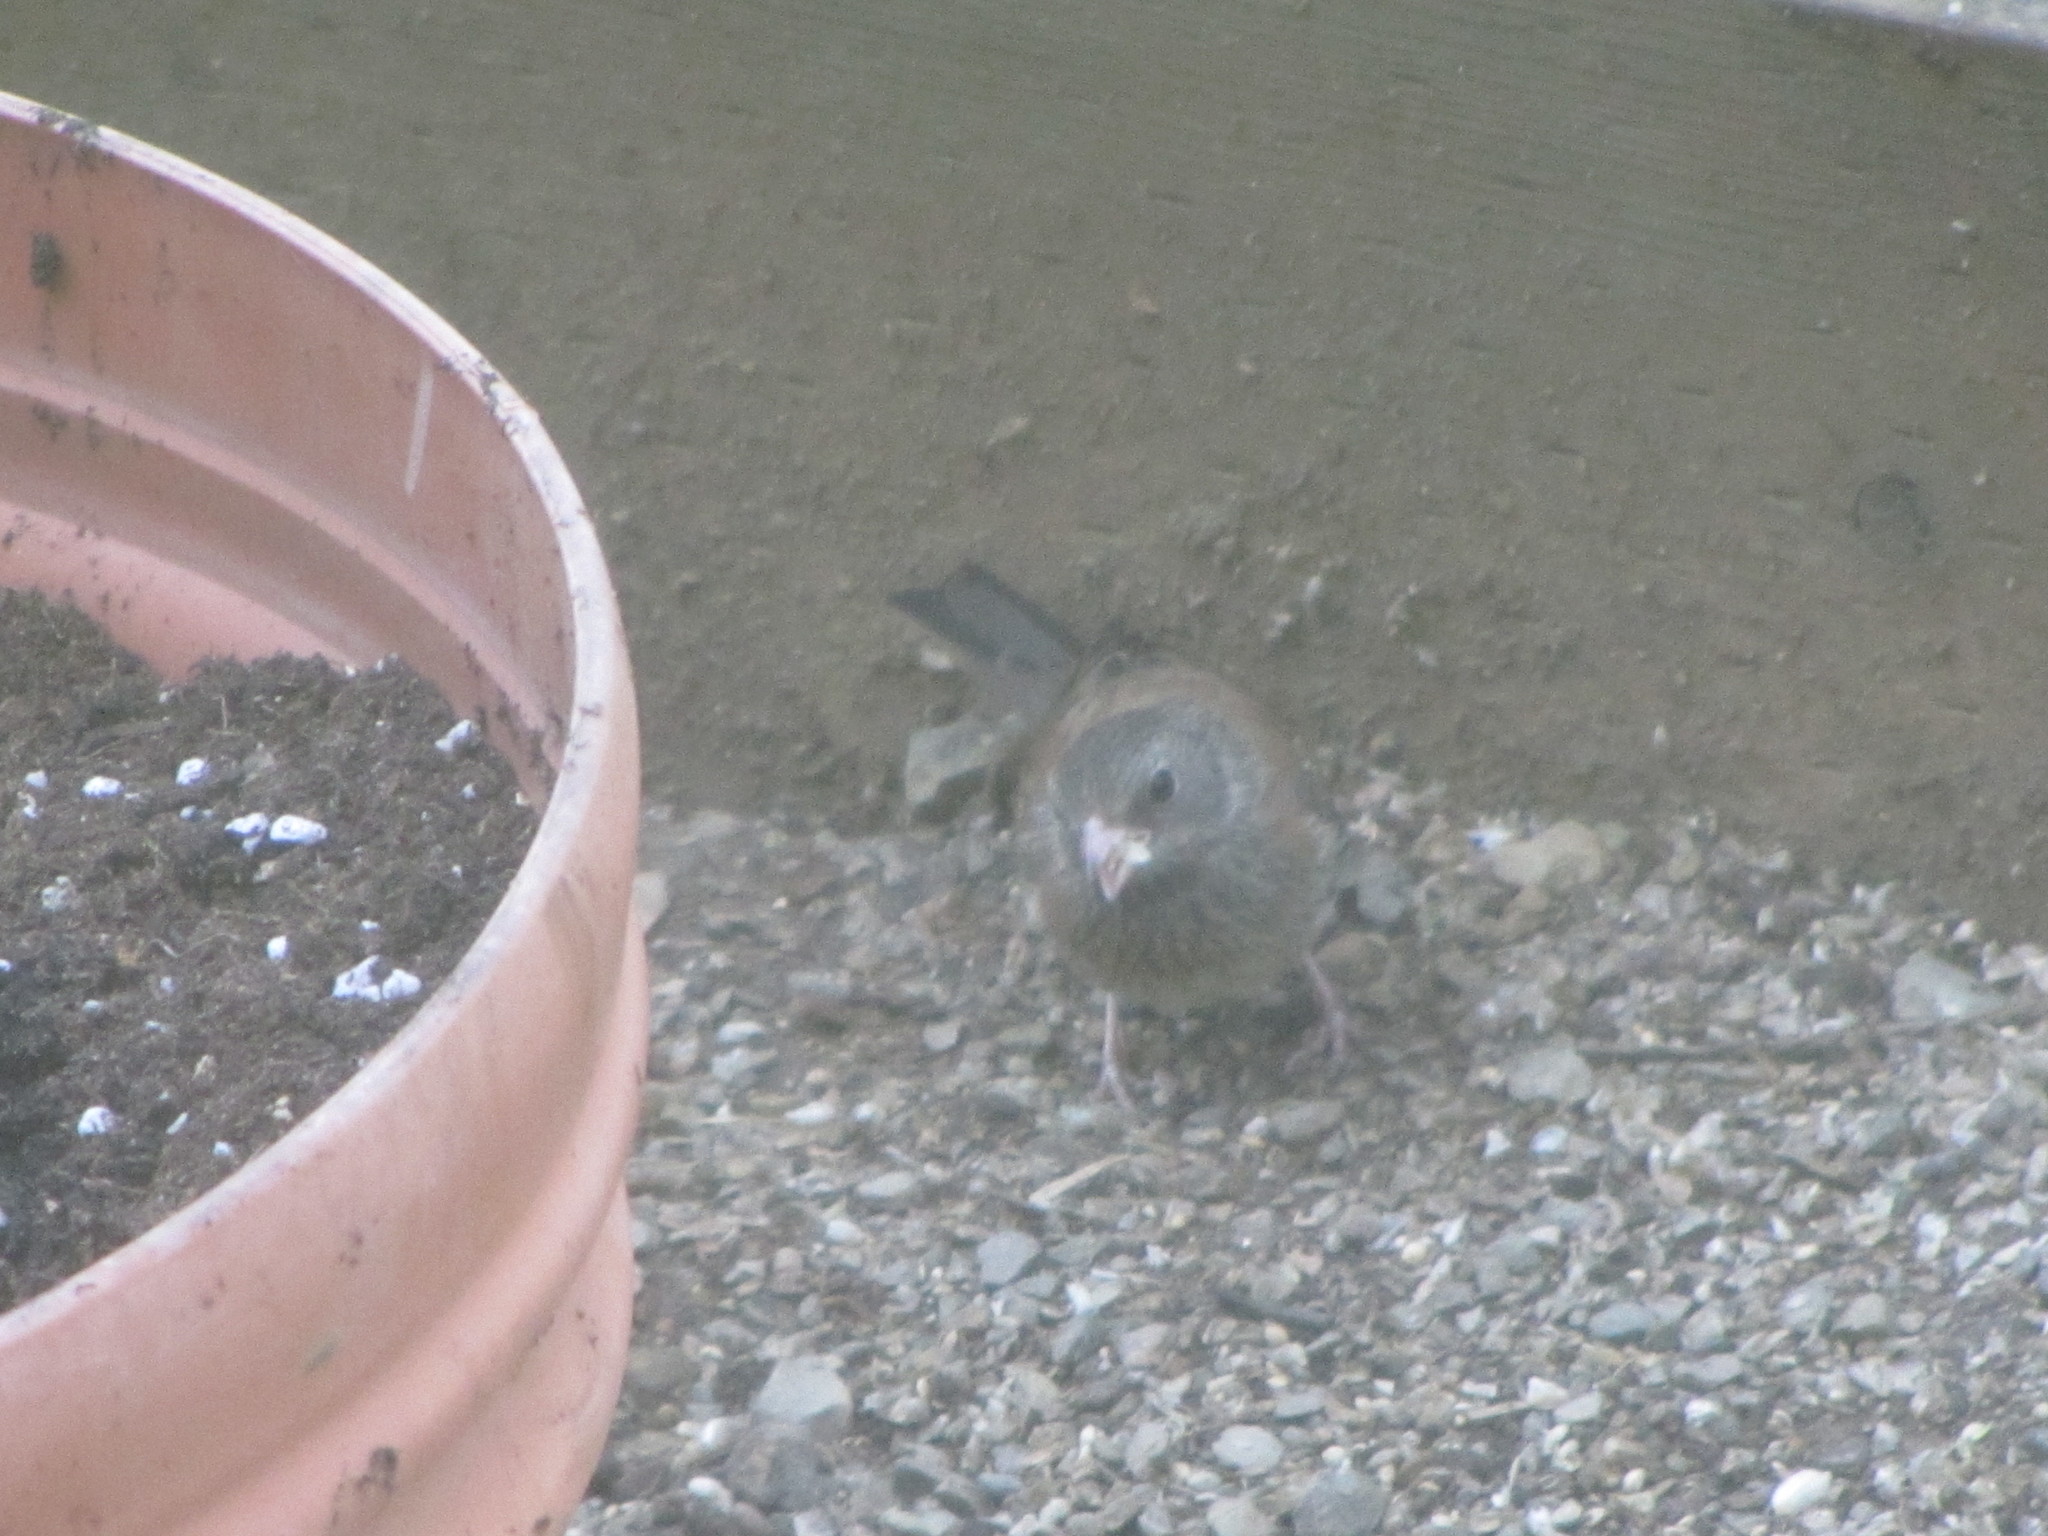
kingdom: Animalia
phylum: Chordata
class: Aves
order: Passeriformes
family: Passerellidae
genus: Junco
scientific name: Junco hyemalis
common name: Dark-eyed junco
